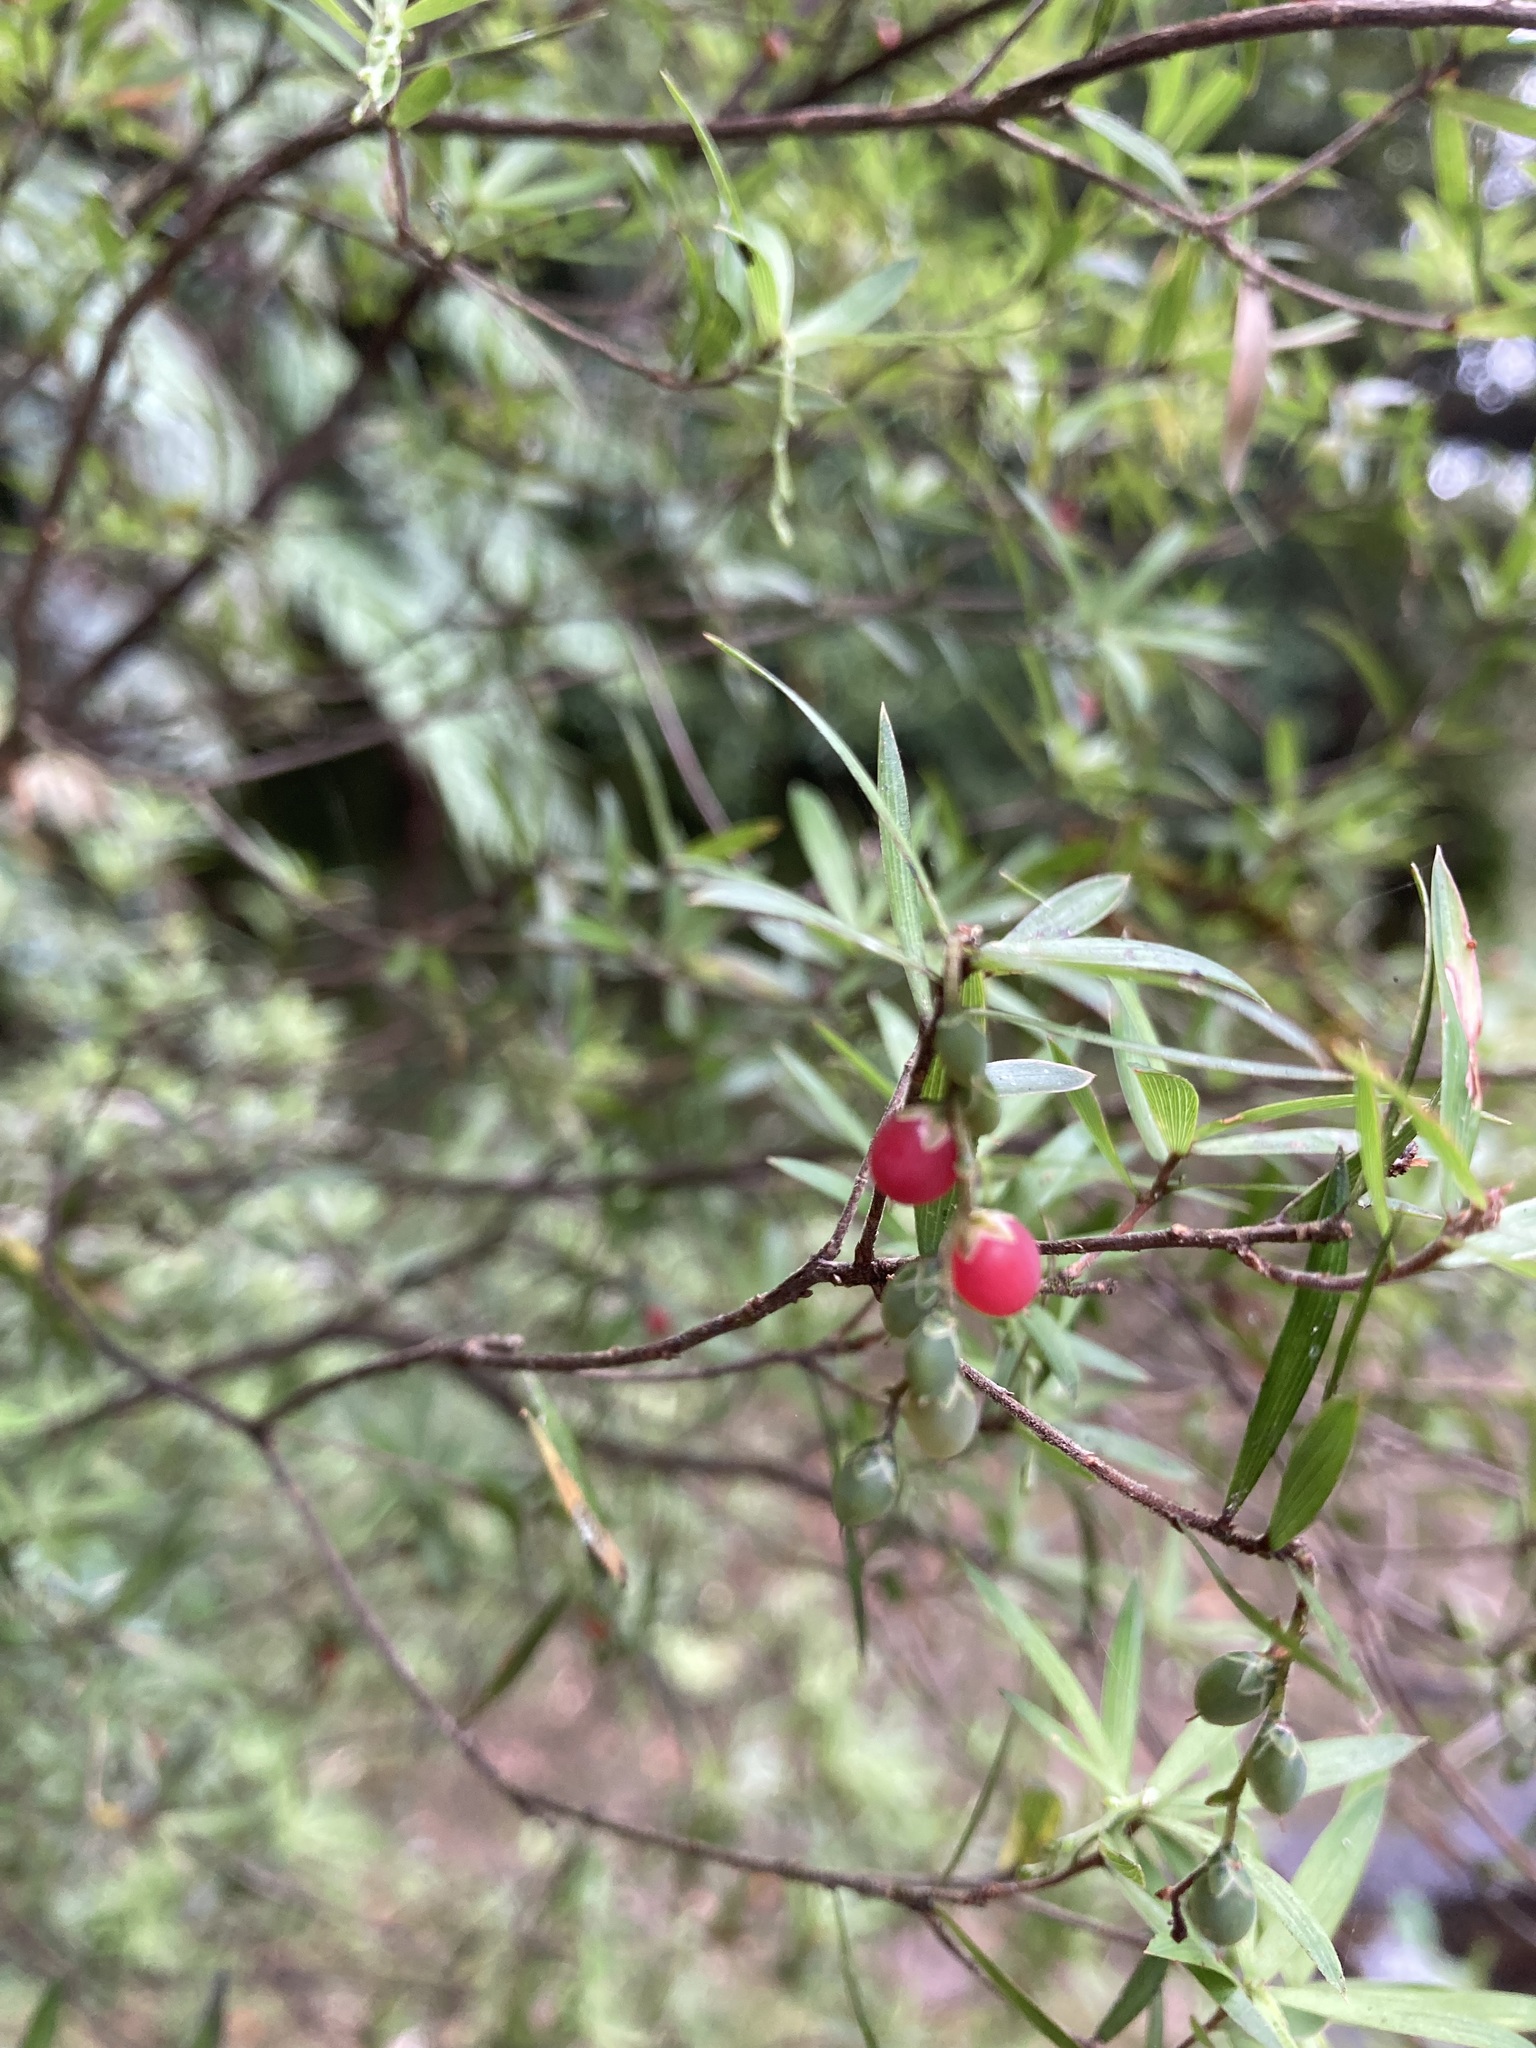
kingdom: Plantae
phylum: Tracheophyta
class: Magnoliopsida
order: Ericales
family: Ericaceae
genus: Leucopogon
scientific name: Leucopogon fasciculatus
